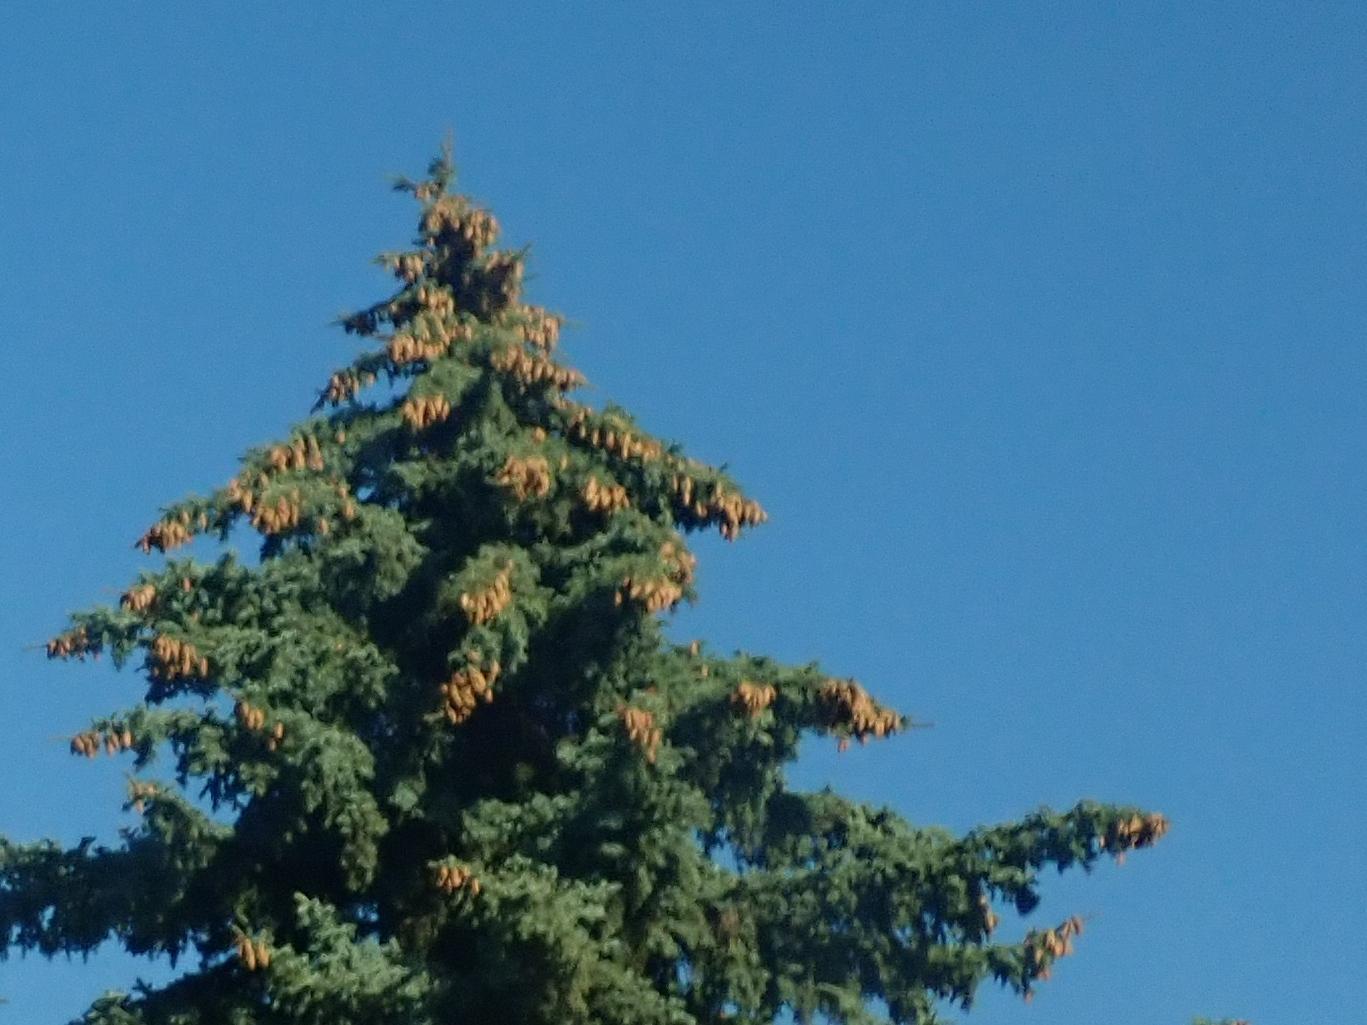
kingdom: Plantae
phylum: Tracheophyta
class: Pinopsida
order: Pinales
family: Pinaceae
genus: Picea
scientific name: Picea abies
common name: Norway spruce
